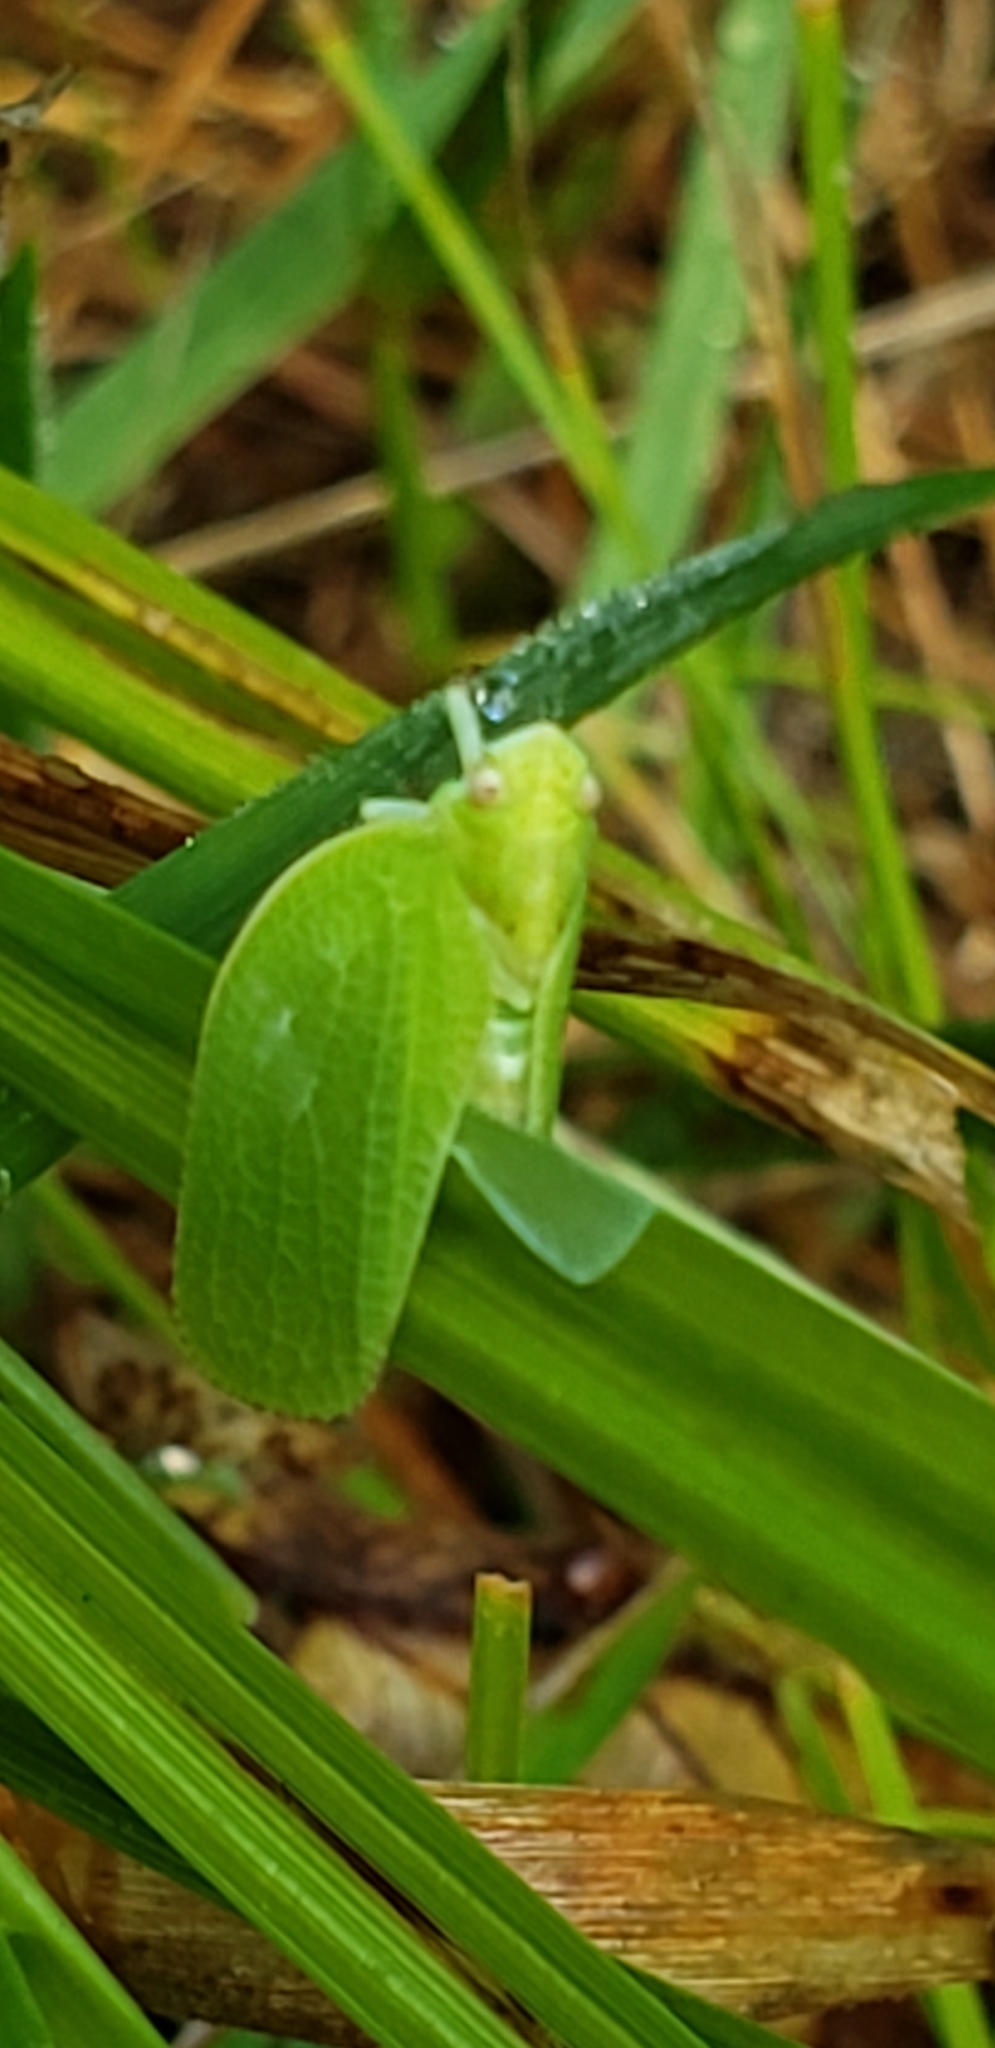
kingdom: Animalia
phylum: Arthropoda
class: Insecta
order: Hemiptera
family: Acanaloniidae
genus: Acanalonia
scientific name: Acanalonia conica
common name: Green cone-headed planthopper
